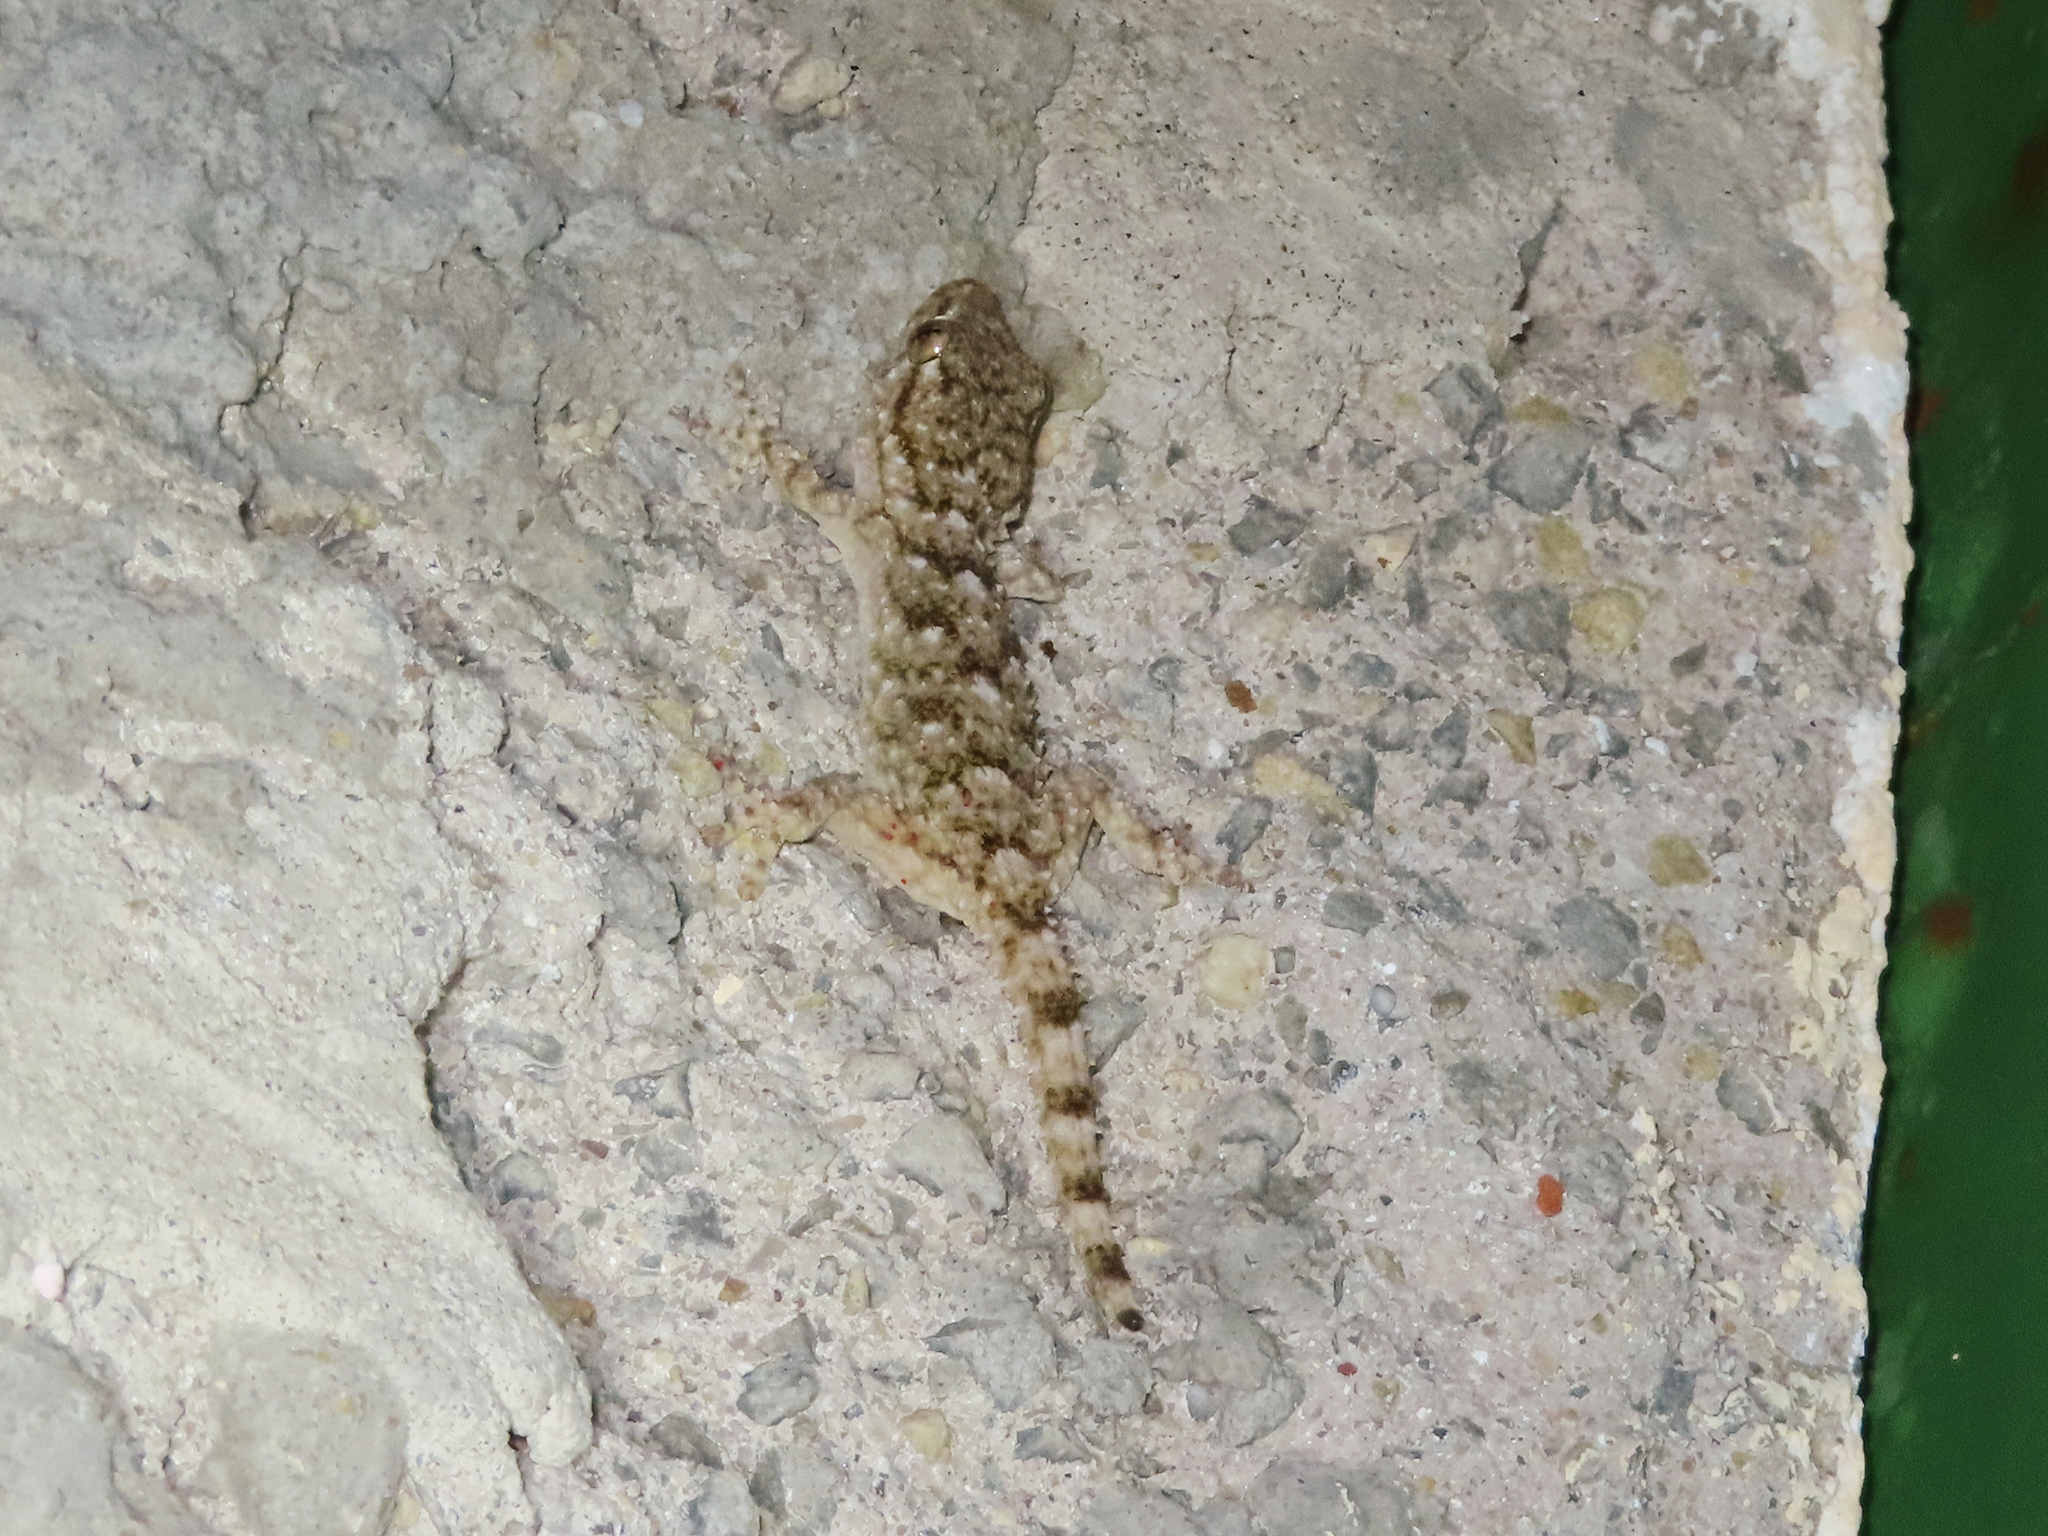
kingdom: Animalia
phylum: Chordata
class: Squamata
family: Phyllodactylidae
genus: Tarentola
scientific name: Tarentola mauritanica
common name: Moorish gecko
